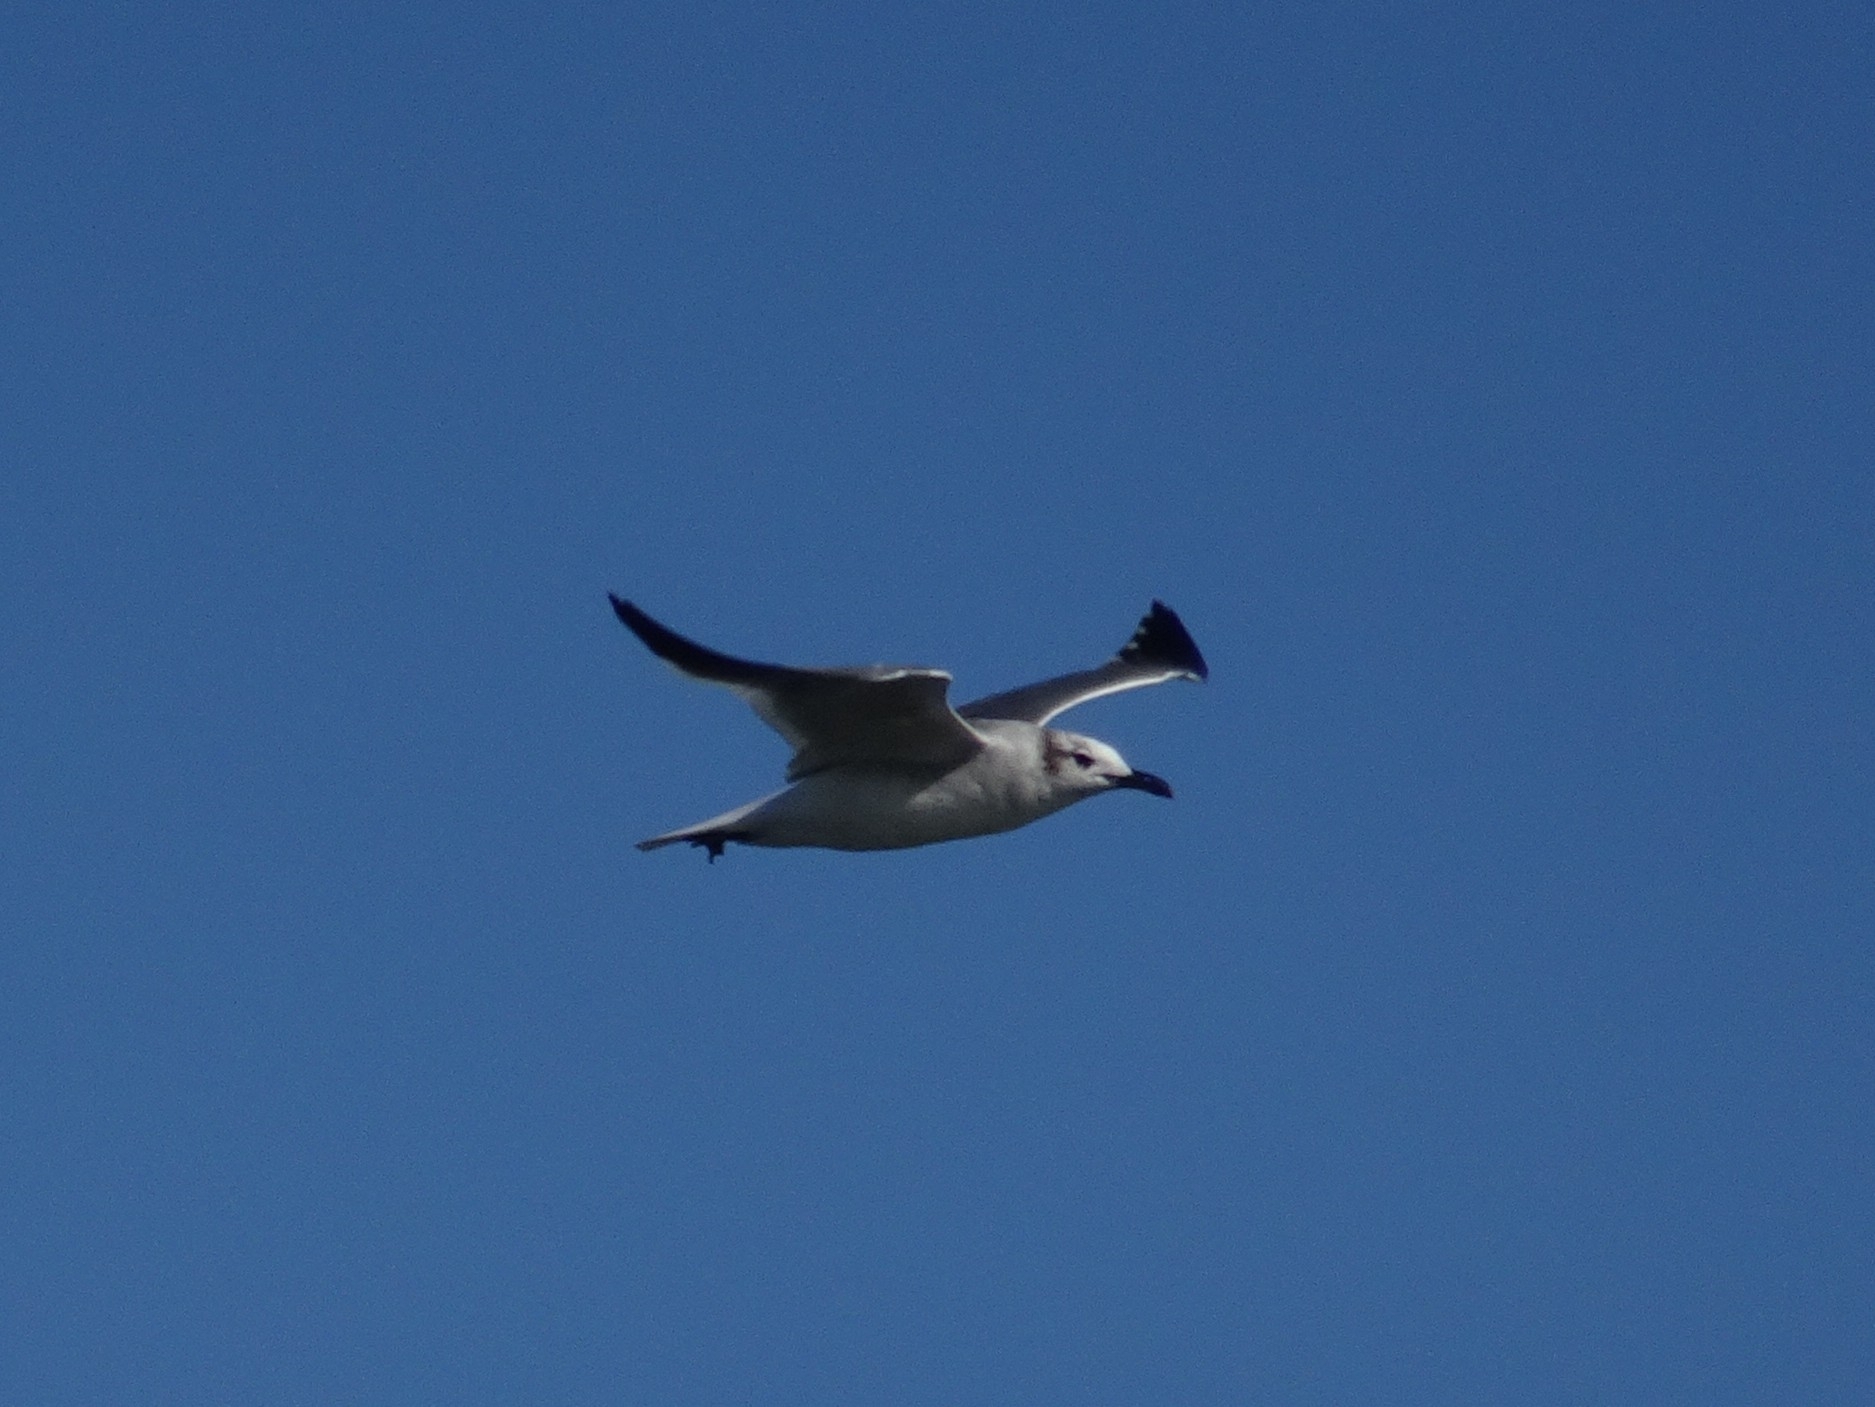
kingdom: Animalia
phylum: Chordata
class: Aves
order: Charadriiformes
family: Laridae
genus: Leucophaeus
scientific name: Leucophaeus atricilla
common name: Laughing gull
